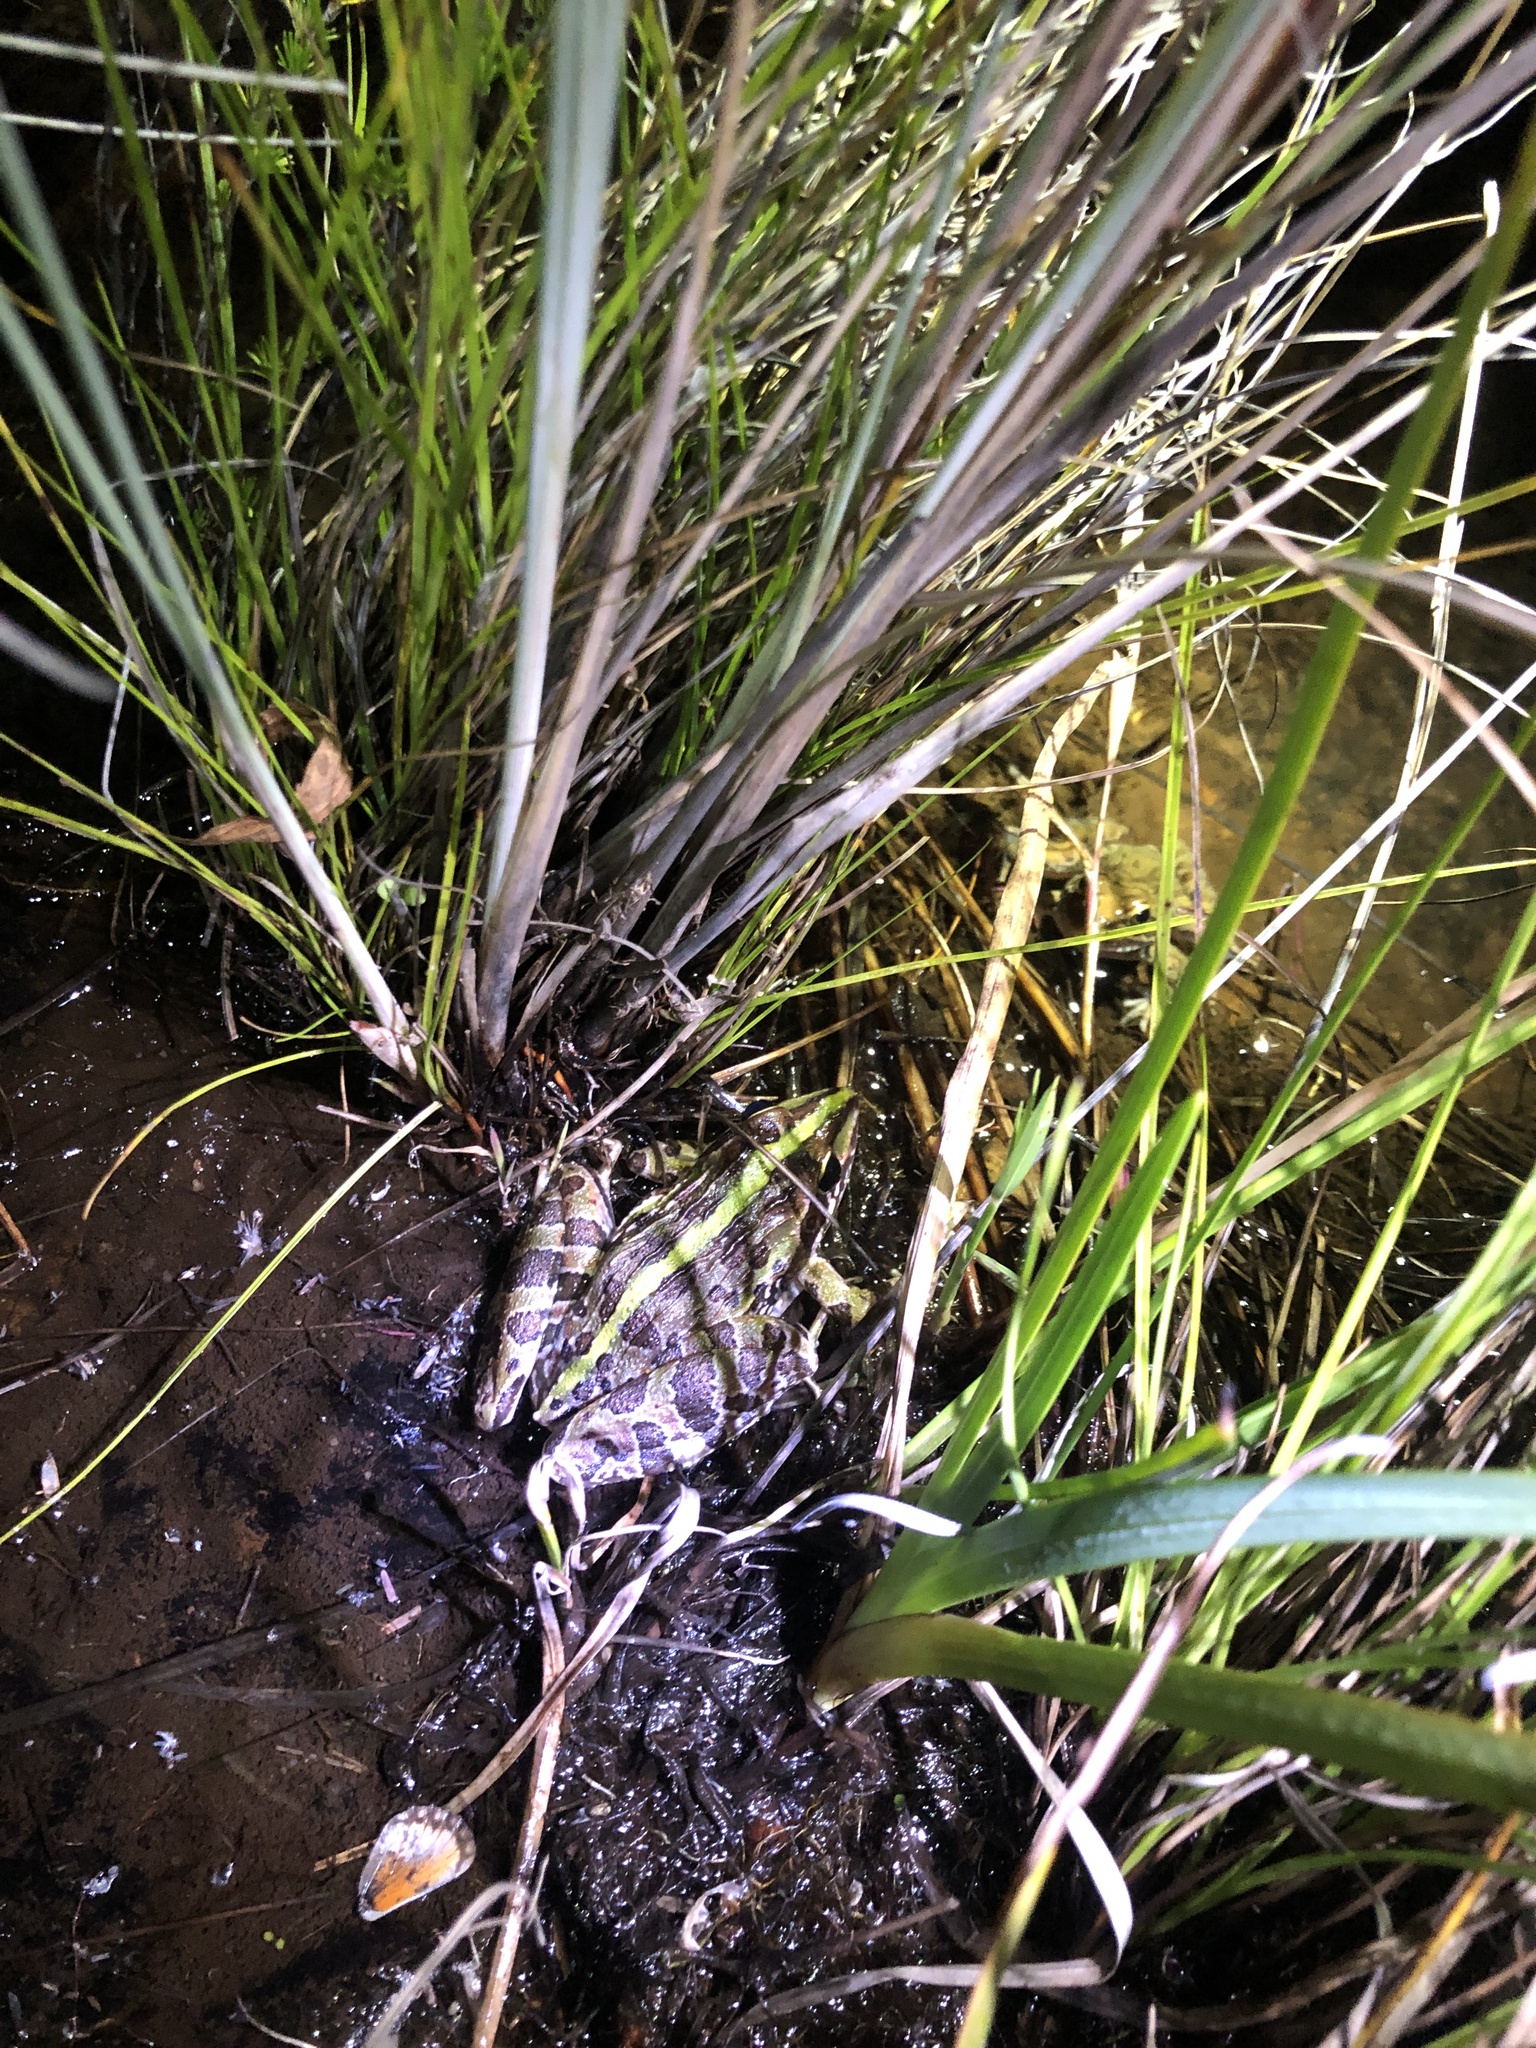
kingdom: Animalia
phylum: Chordata
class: Amphibia
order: Anura
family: Pyxicephalidae
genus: Amietia
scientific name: Amietia delalandii
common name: Delalande's river frog
